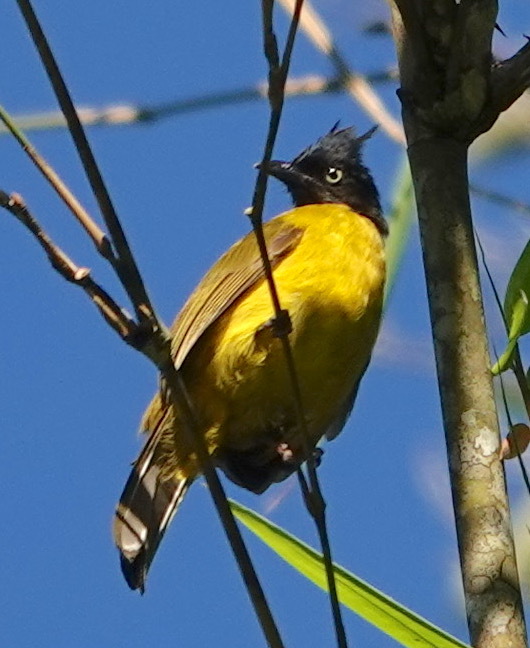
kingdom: Animalia
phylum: Chordata
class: Aves
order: Passeriformes
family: Pycnonotidae
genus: Pycnonotus
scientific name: Pycnonotus flaviventris
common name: Black-crested bulbul
